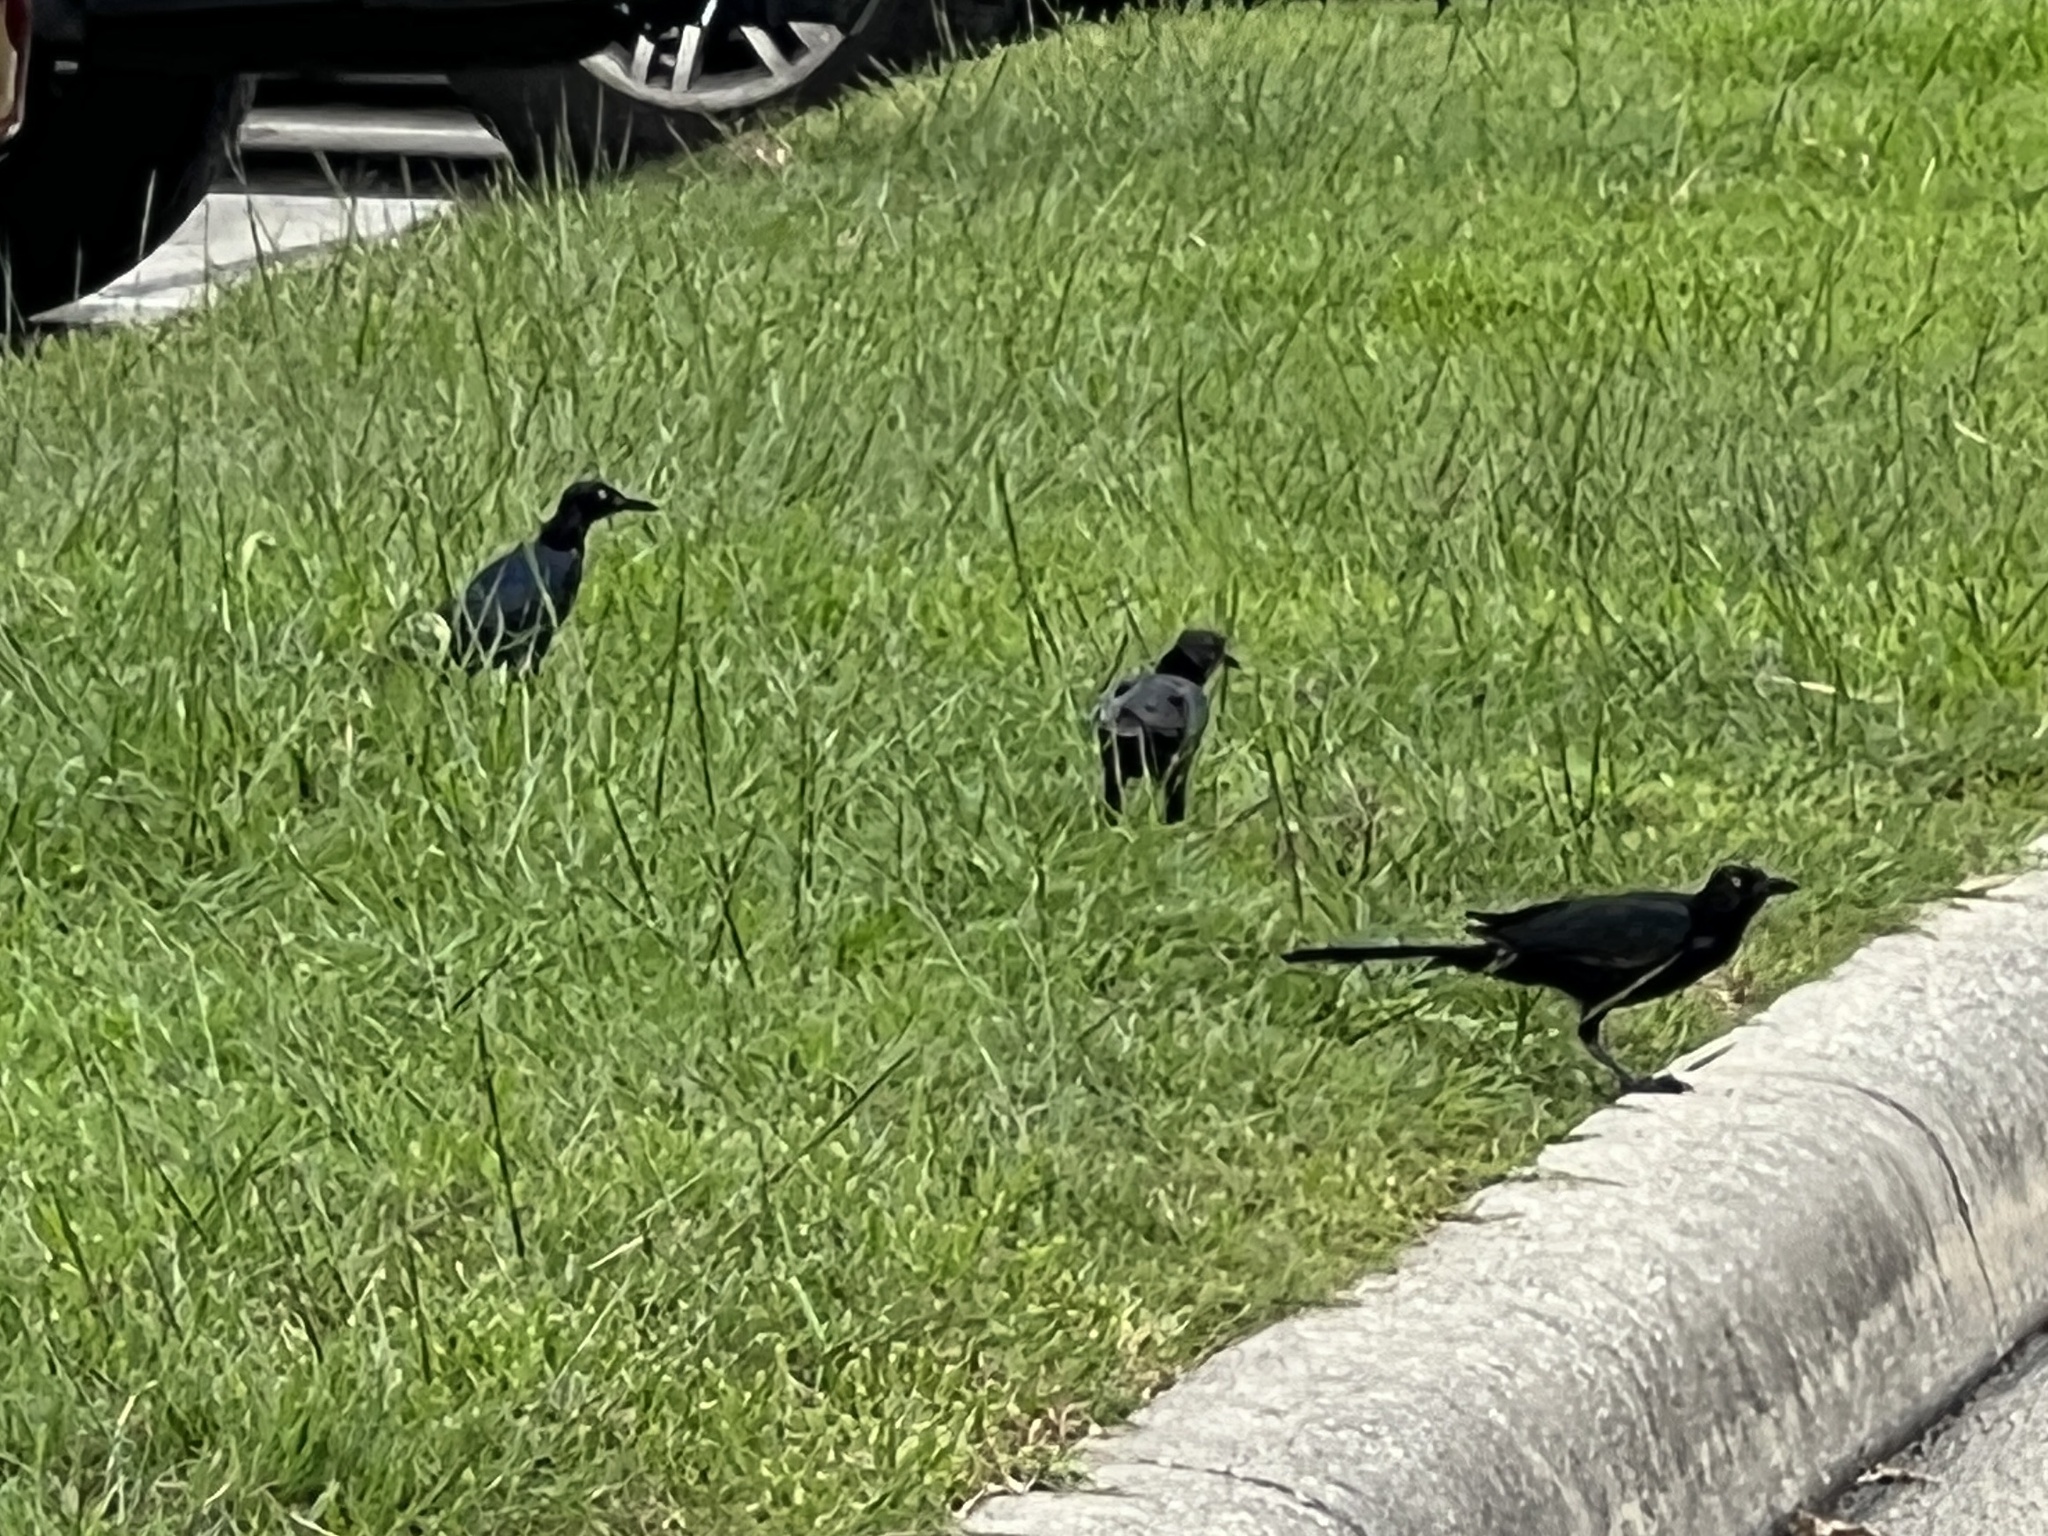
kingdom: Animalia
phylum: Chordata
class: Aves
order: Passeriformes
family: Icteridae
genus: Quiscalus
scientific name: Quiscalus mexicanus
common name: Great-tailed grackle
